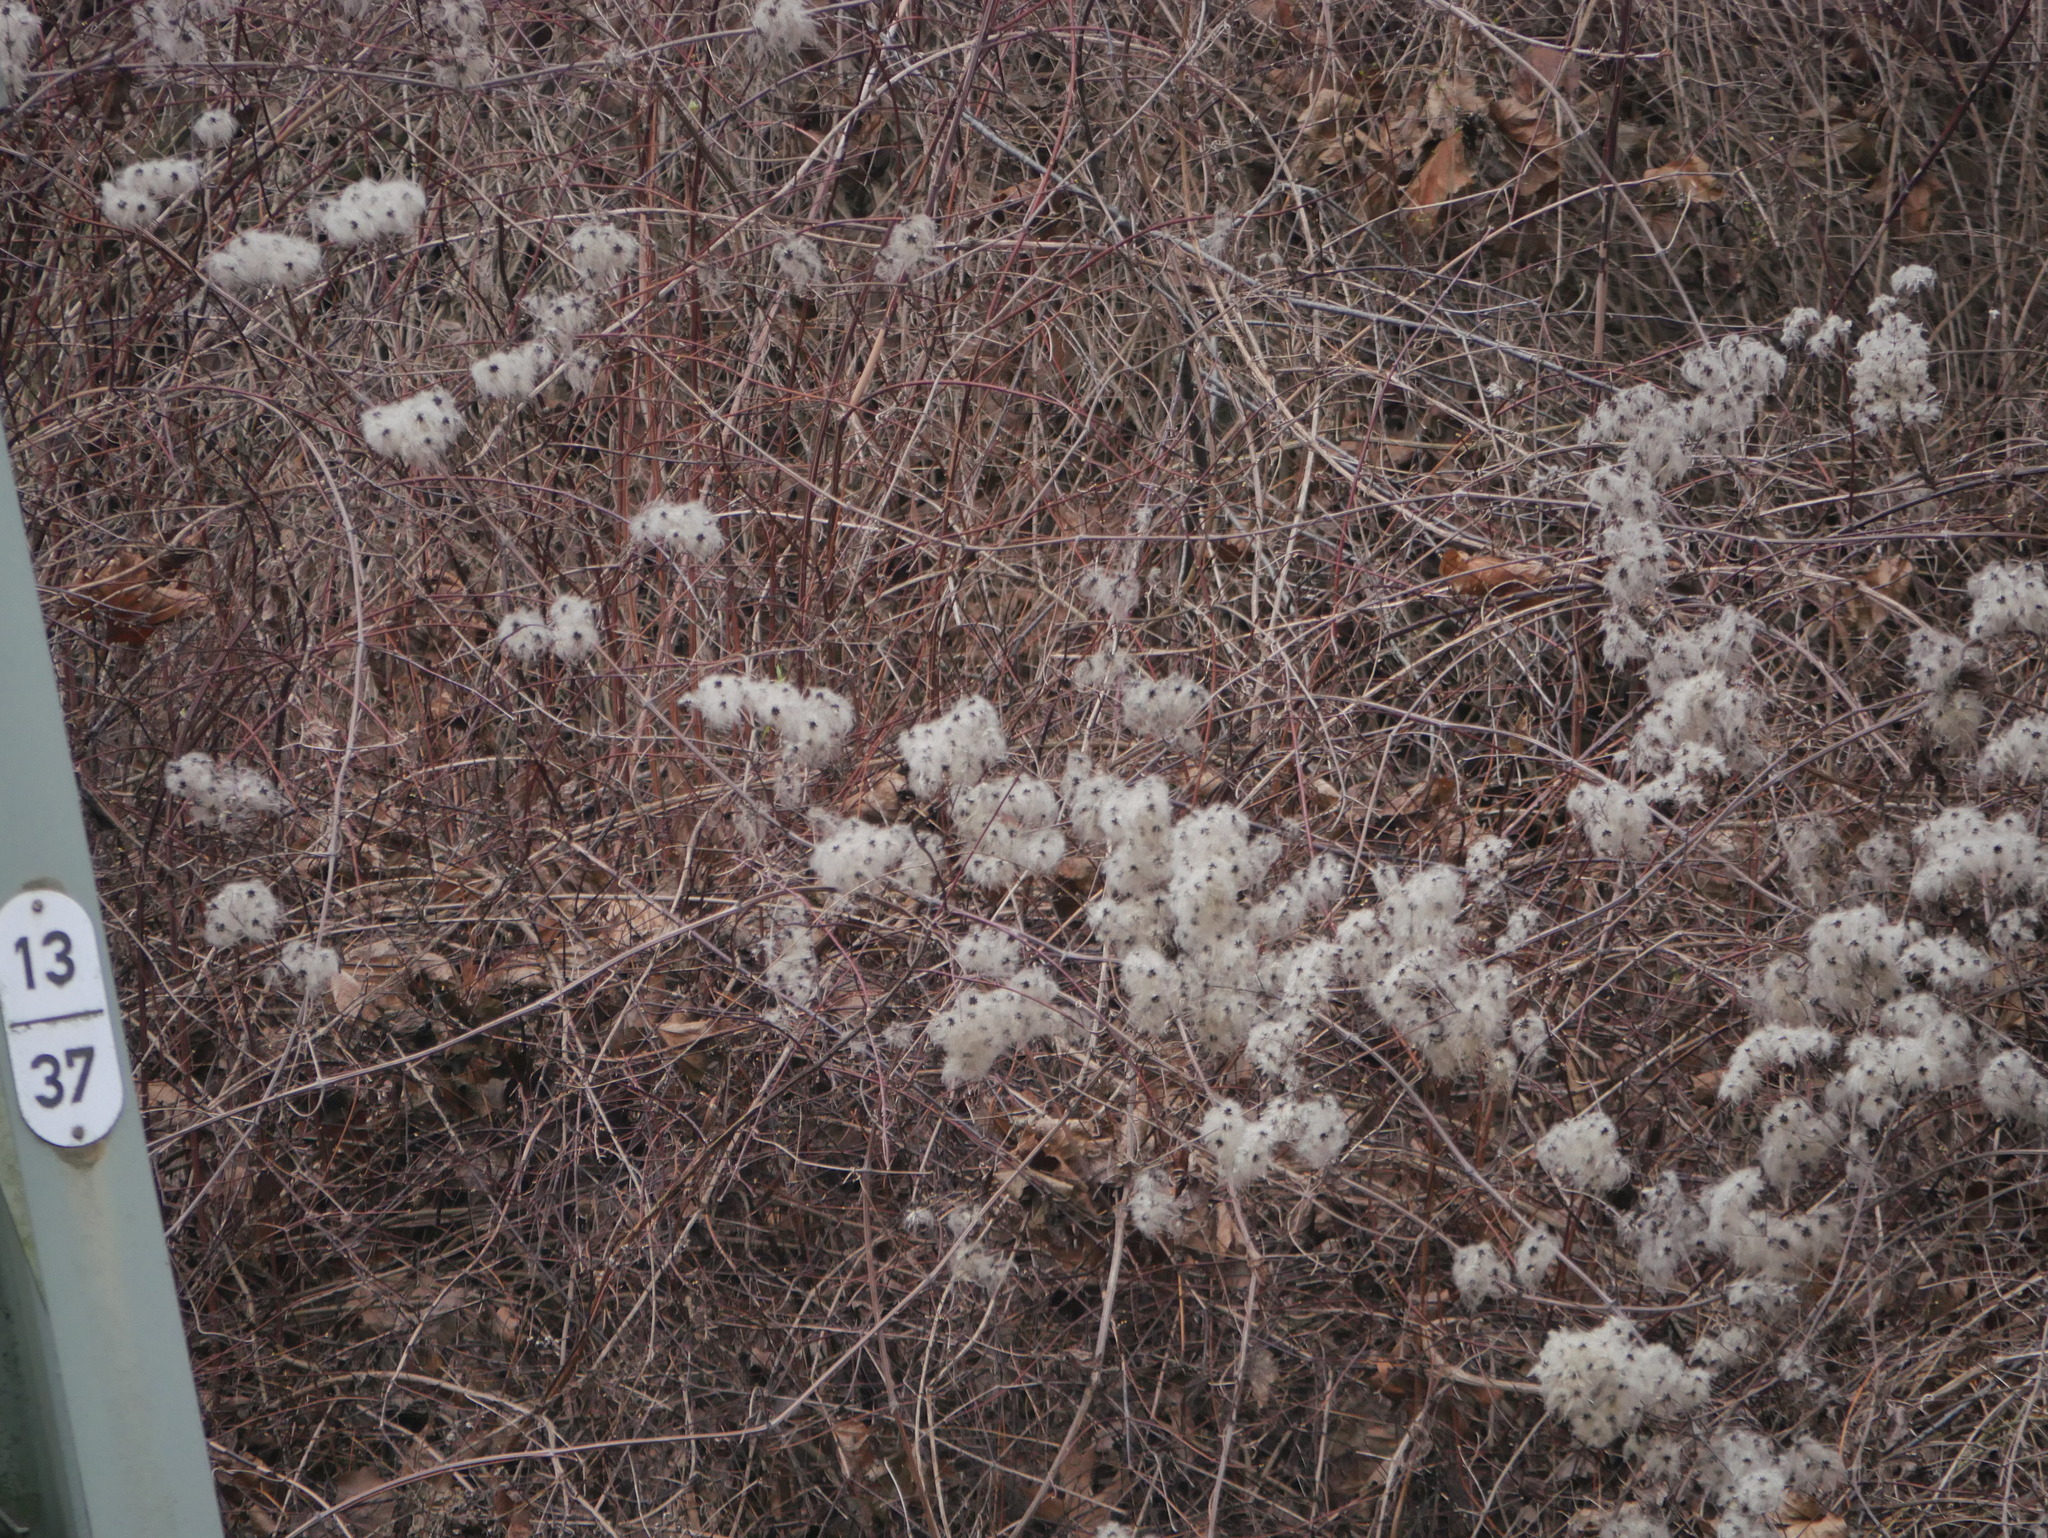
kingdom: Plantae
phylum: Tracheophyta
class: Magnoliopsida
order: Ranunculales
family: Ranunculaceae
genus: Clematis
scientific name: Clematis vitalba
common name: Evergreen clematis
